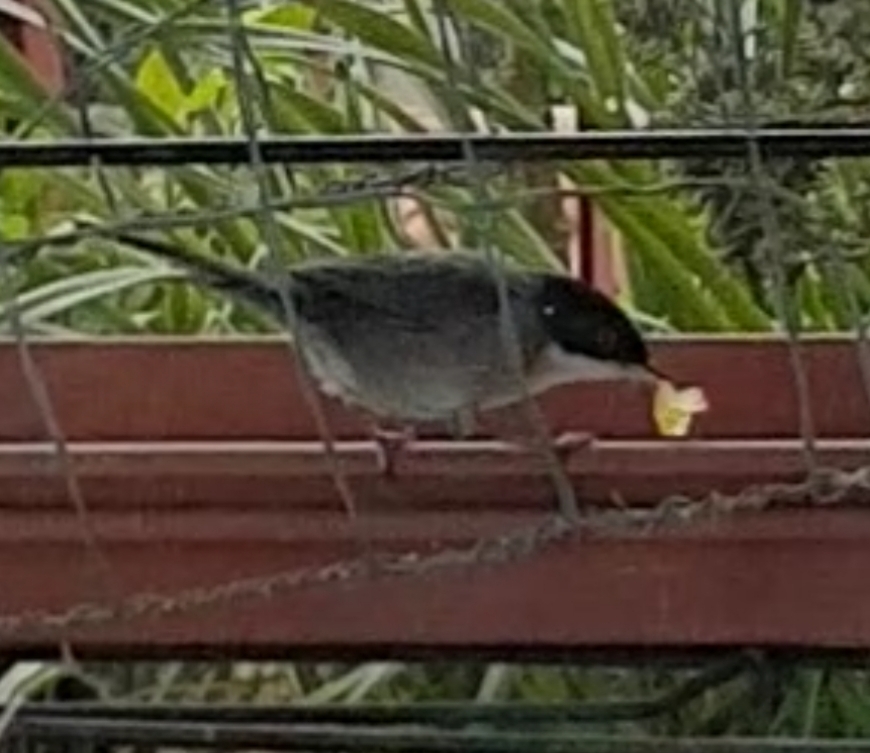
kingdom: Animalia
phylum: Chordata
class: Aves
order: Passeriformes
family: Sylviidae
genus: Curruca
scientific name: Curruca melanocephala
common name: Sardinian warbler
